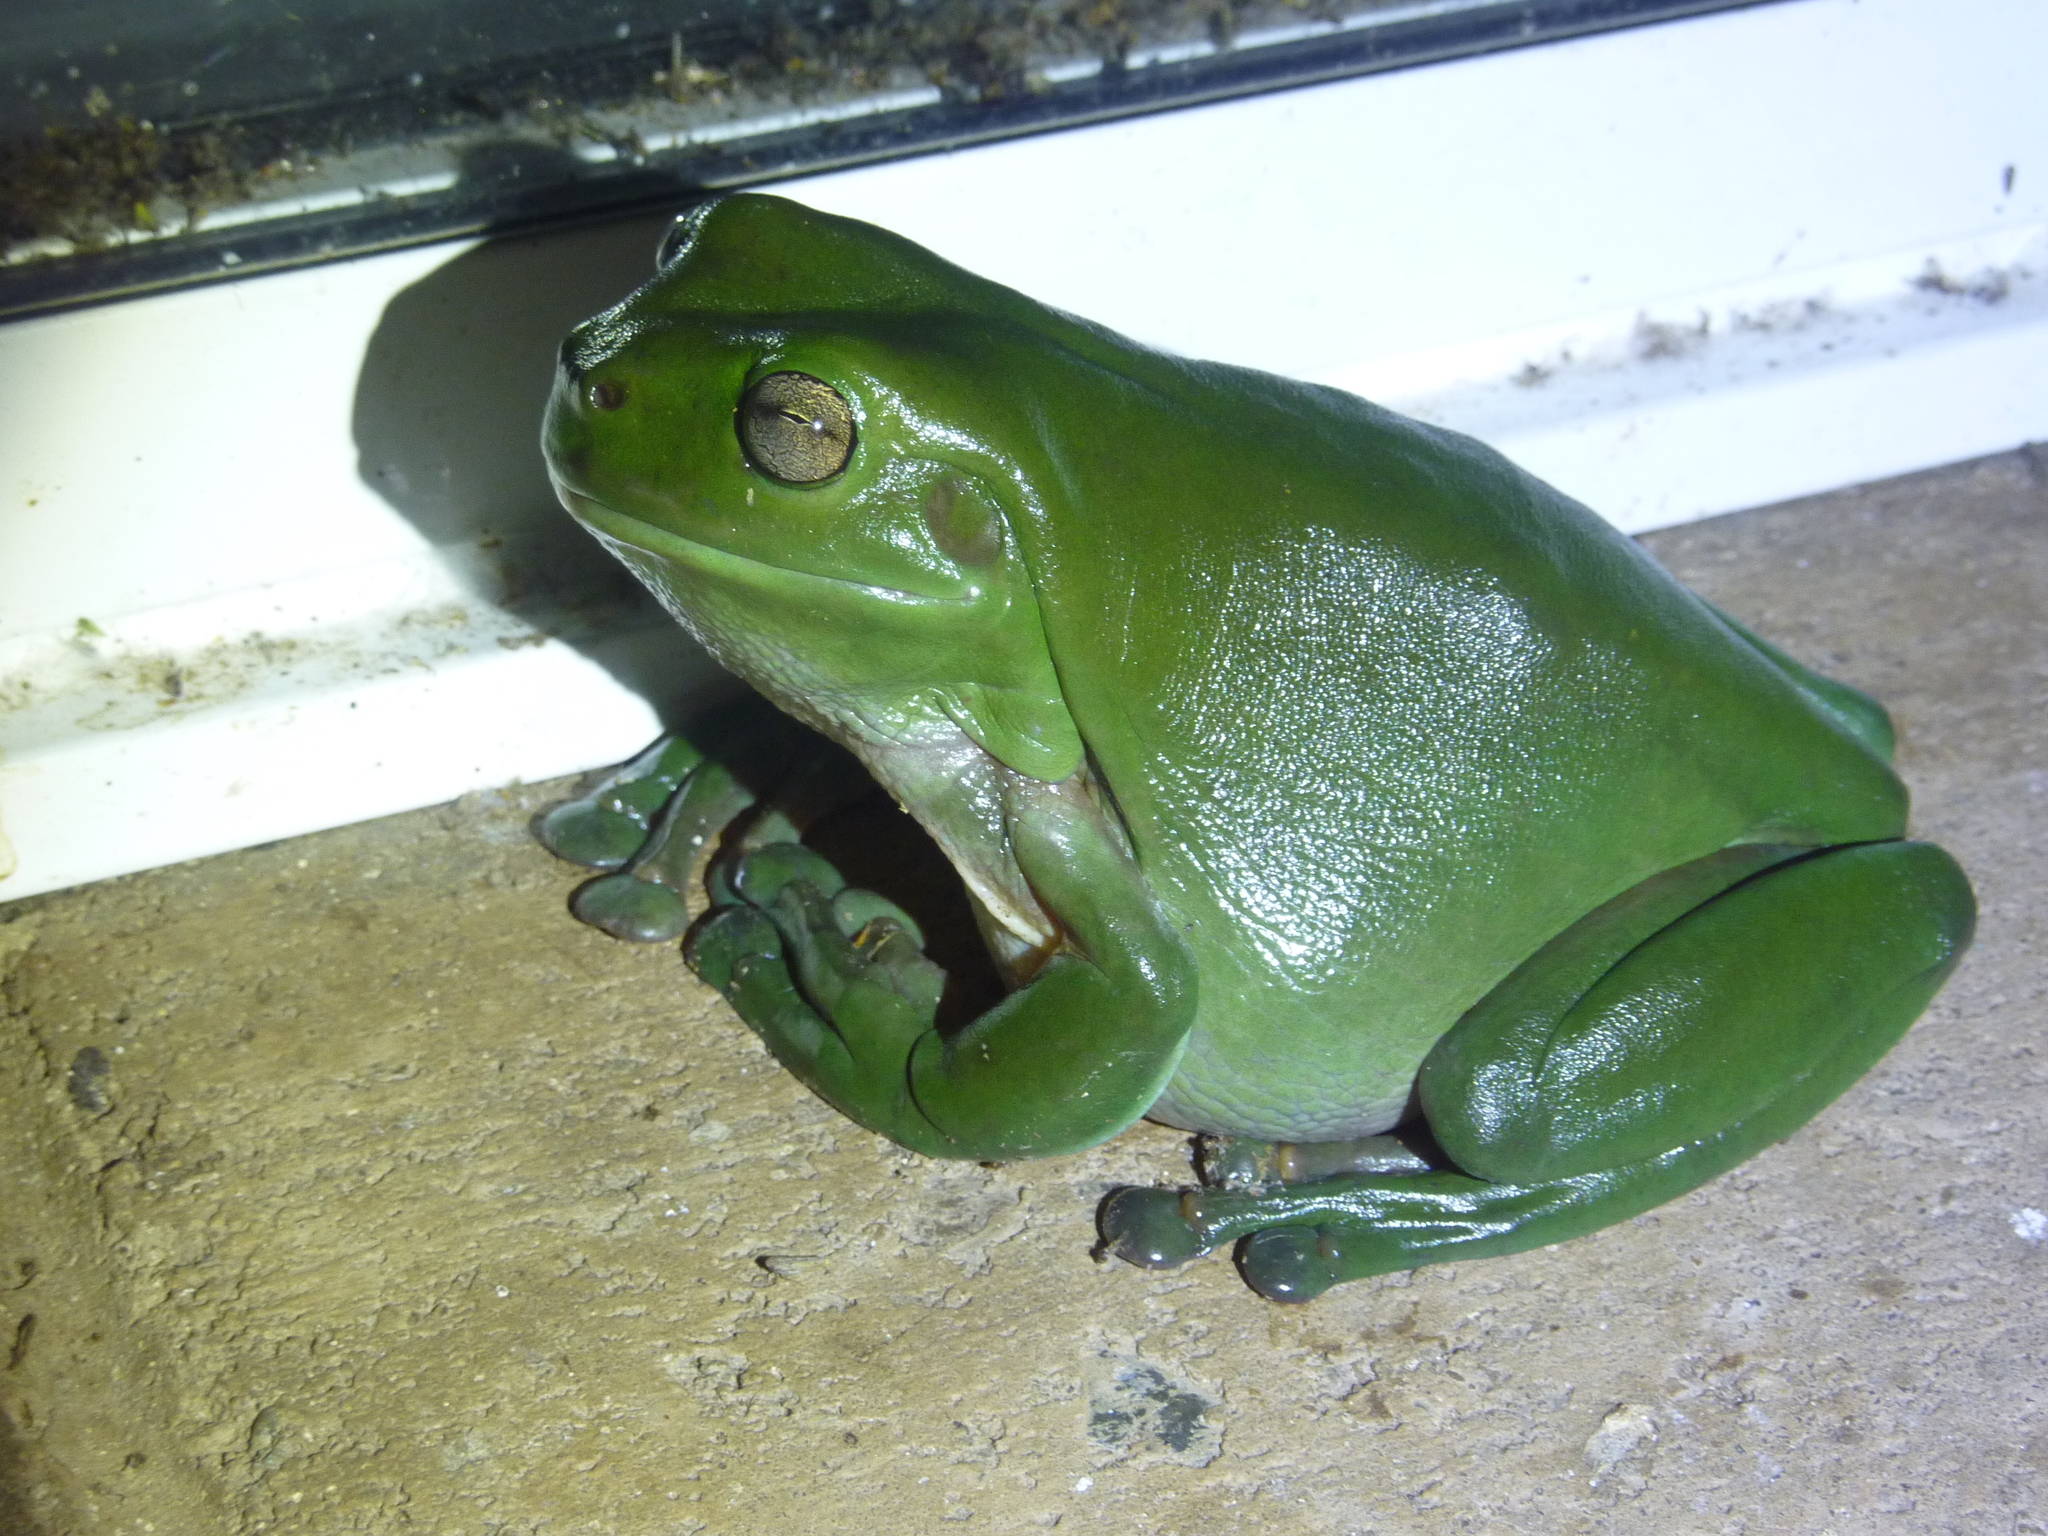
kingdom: Animalia
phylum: Chordata
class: Amphibia
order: Anura
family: Pelodryadidae
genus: Ranoidea
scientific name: Ranoidea caerulea
